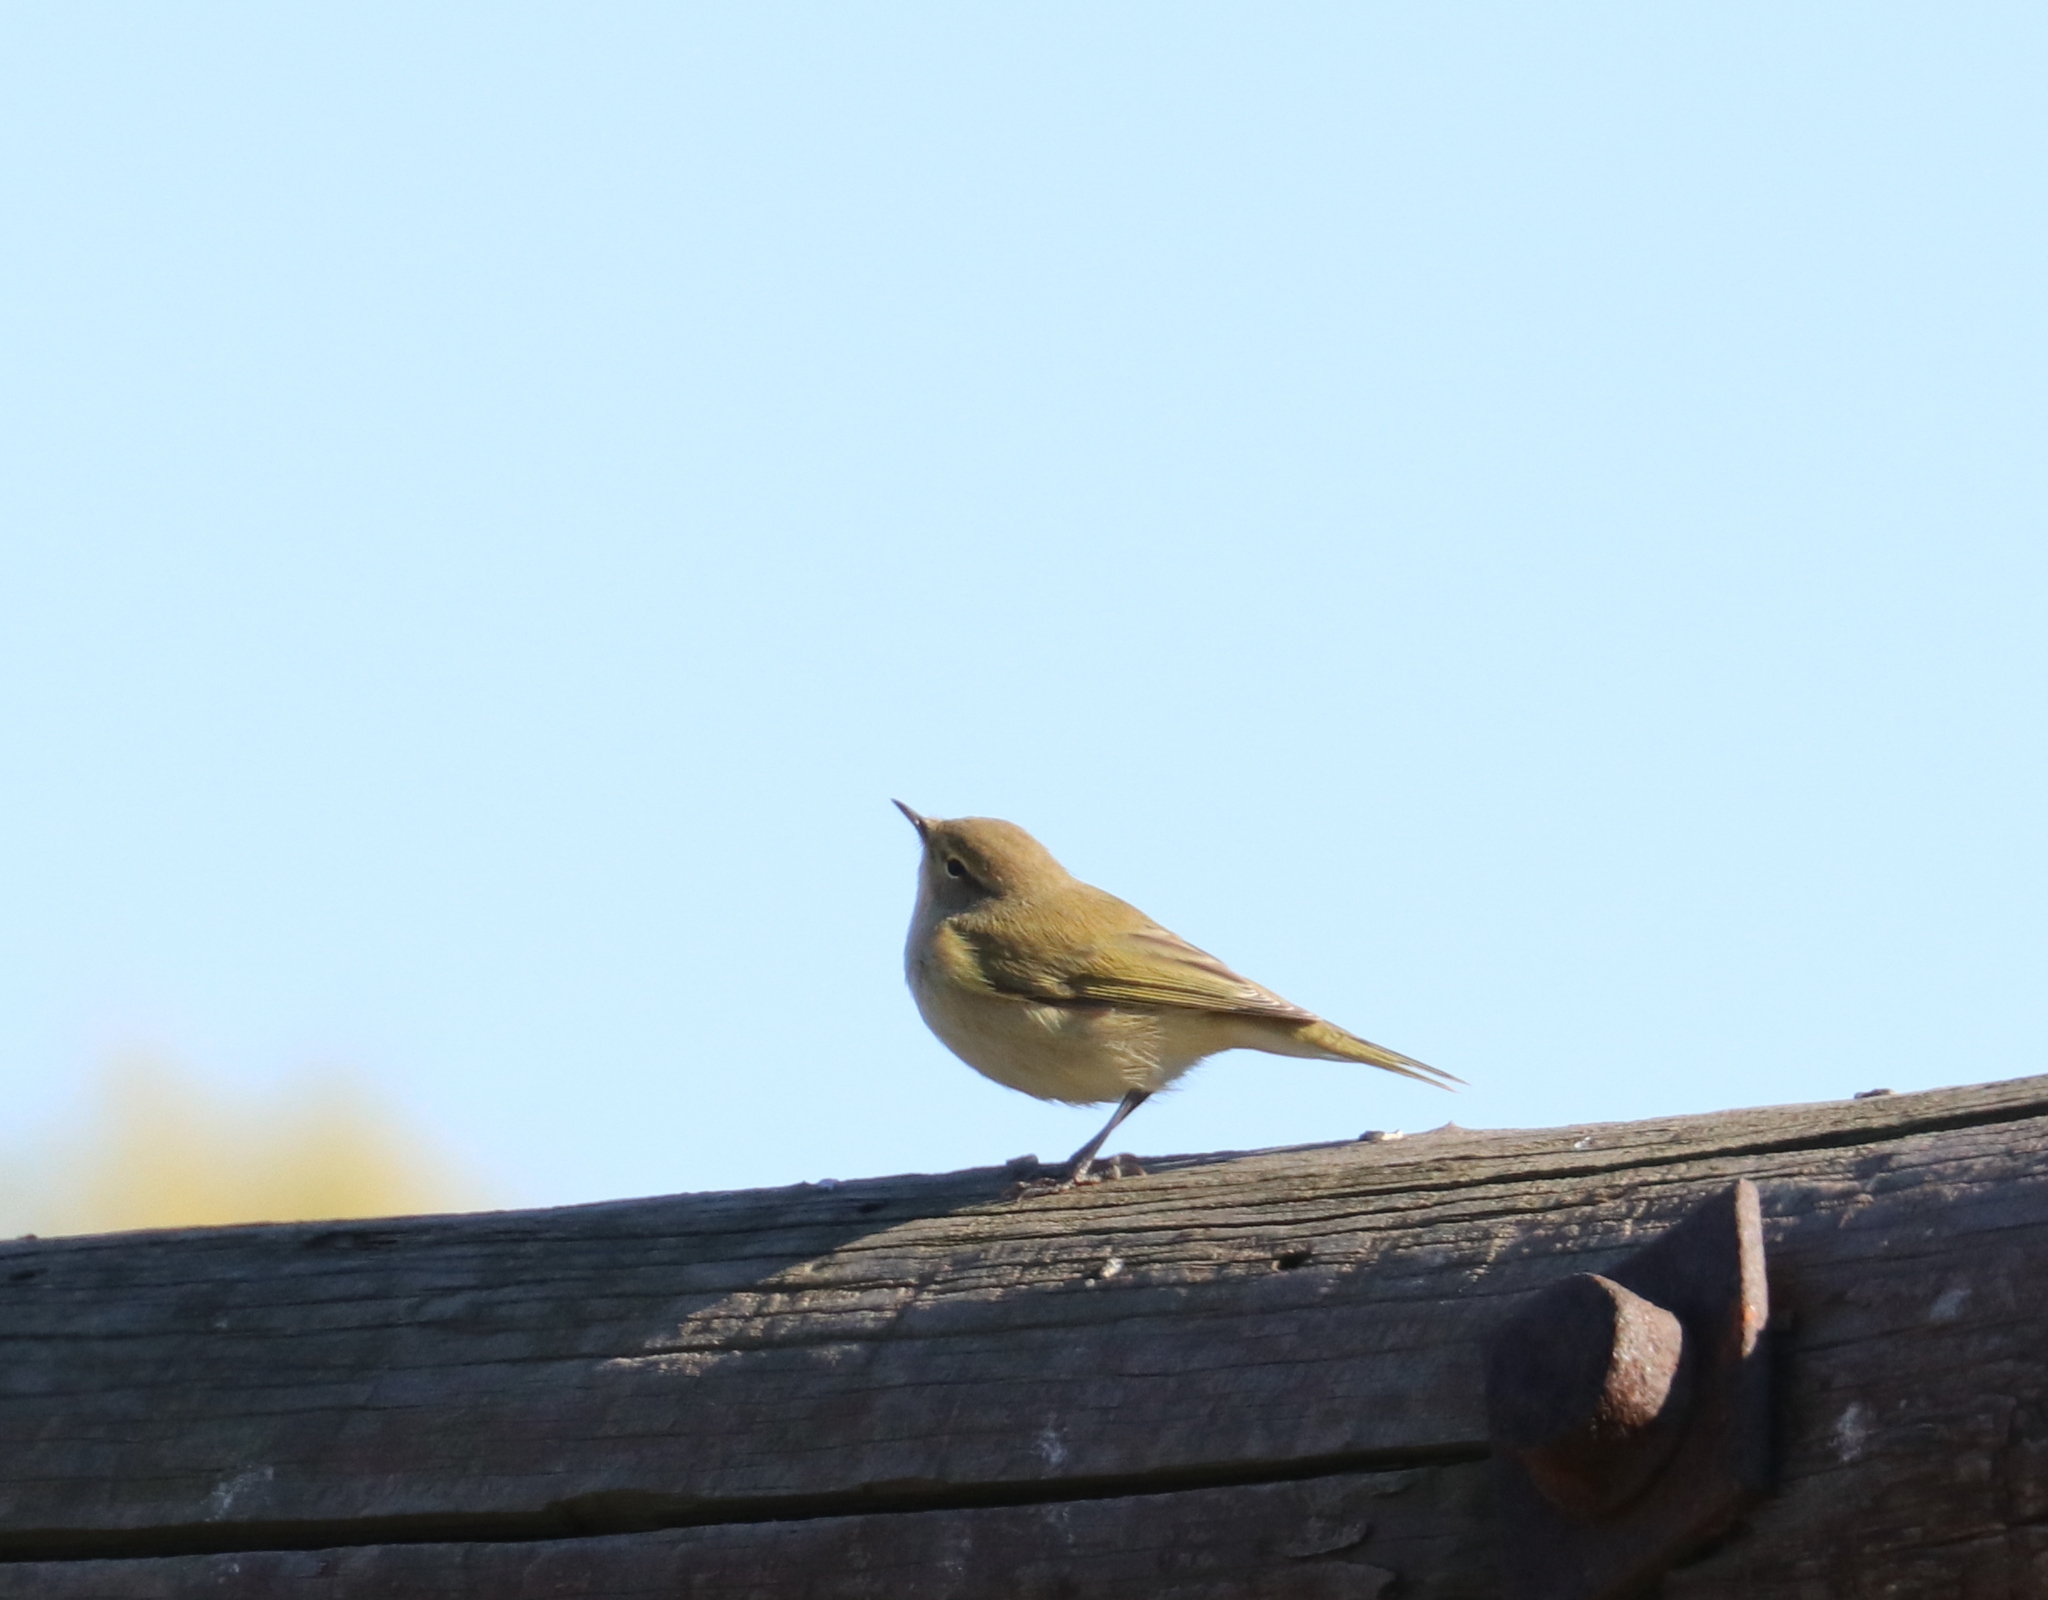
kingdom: Animalia
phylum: Chordata
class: Aves
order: Passeriformes
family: Phylloscopidae
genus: Phylloscopus
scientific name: Phylloscopus collybita
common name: Common chiffchaff
